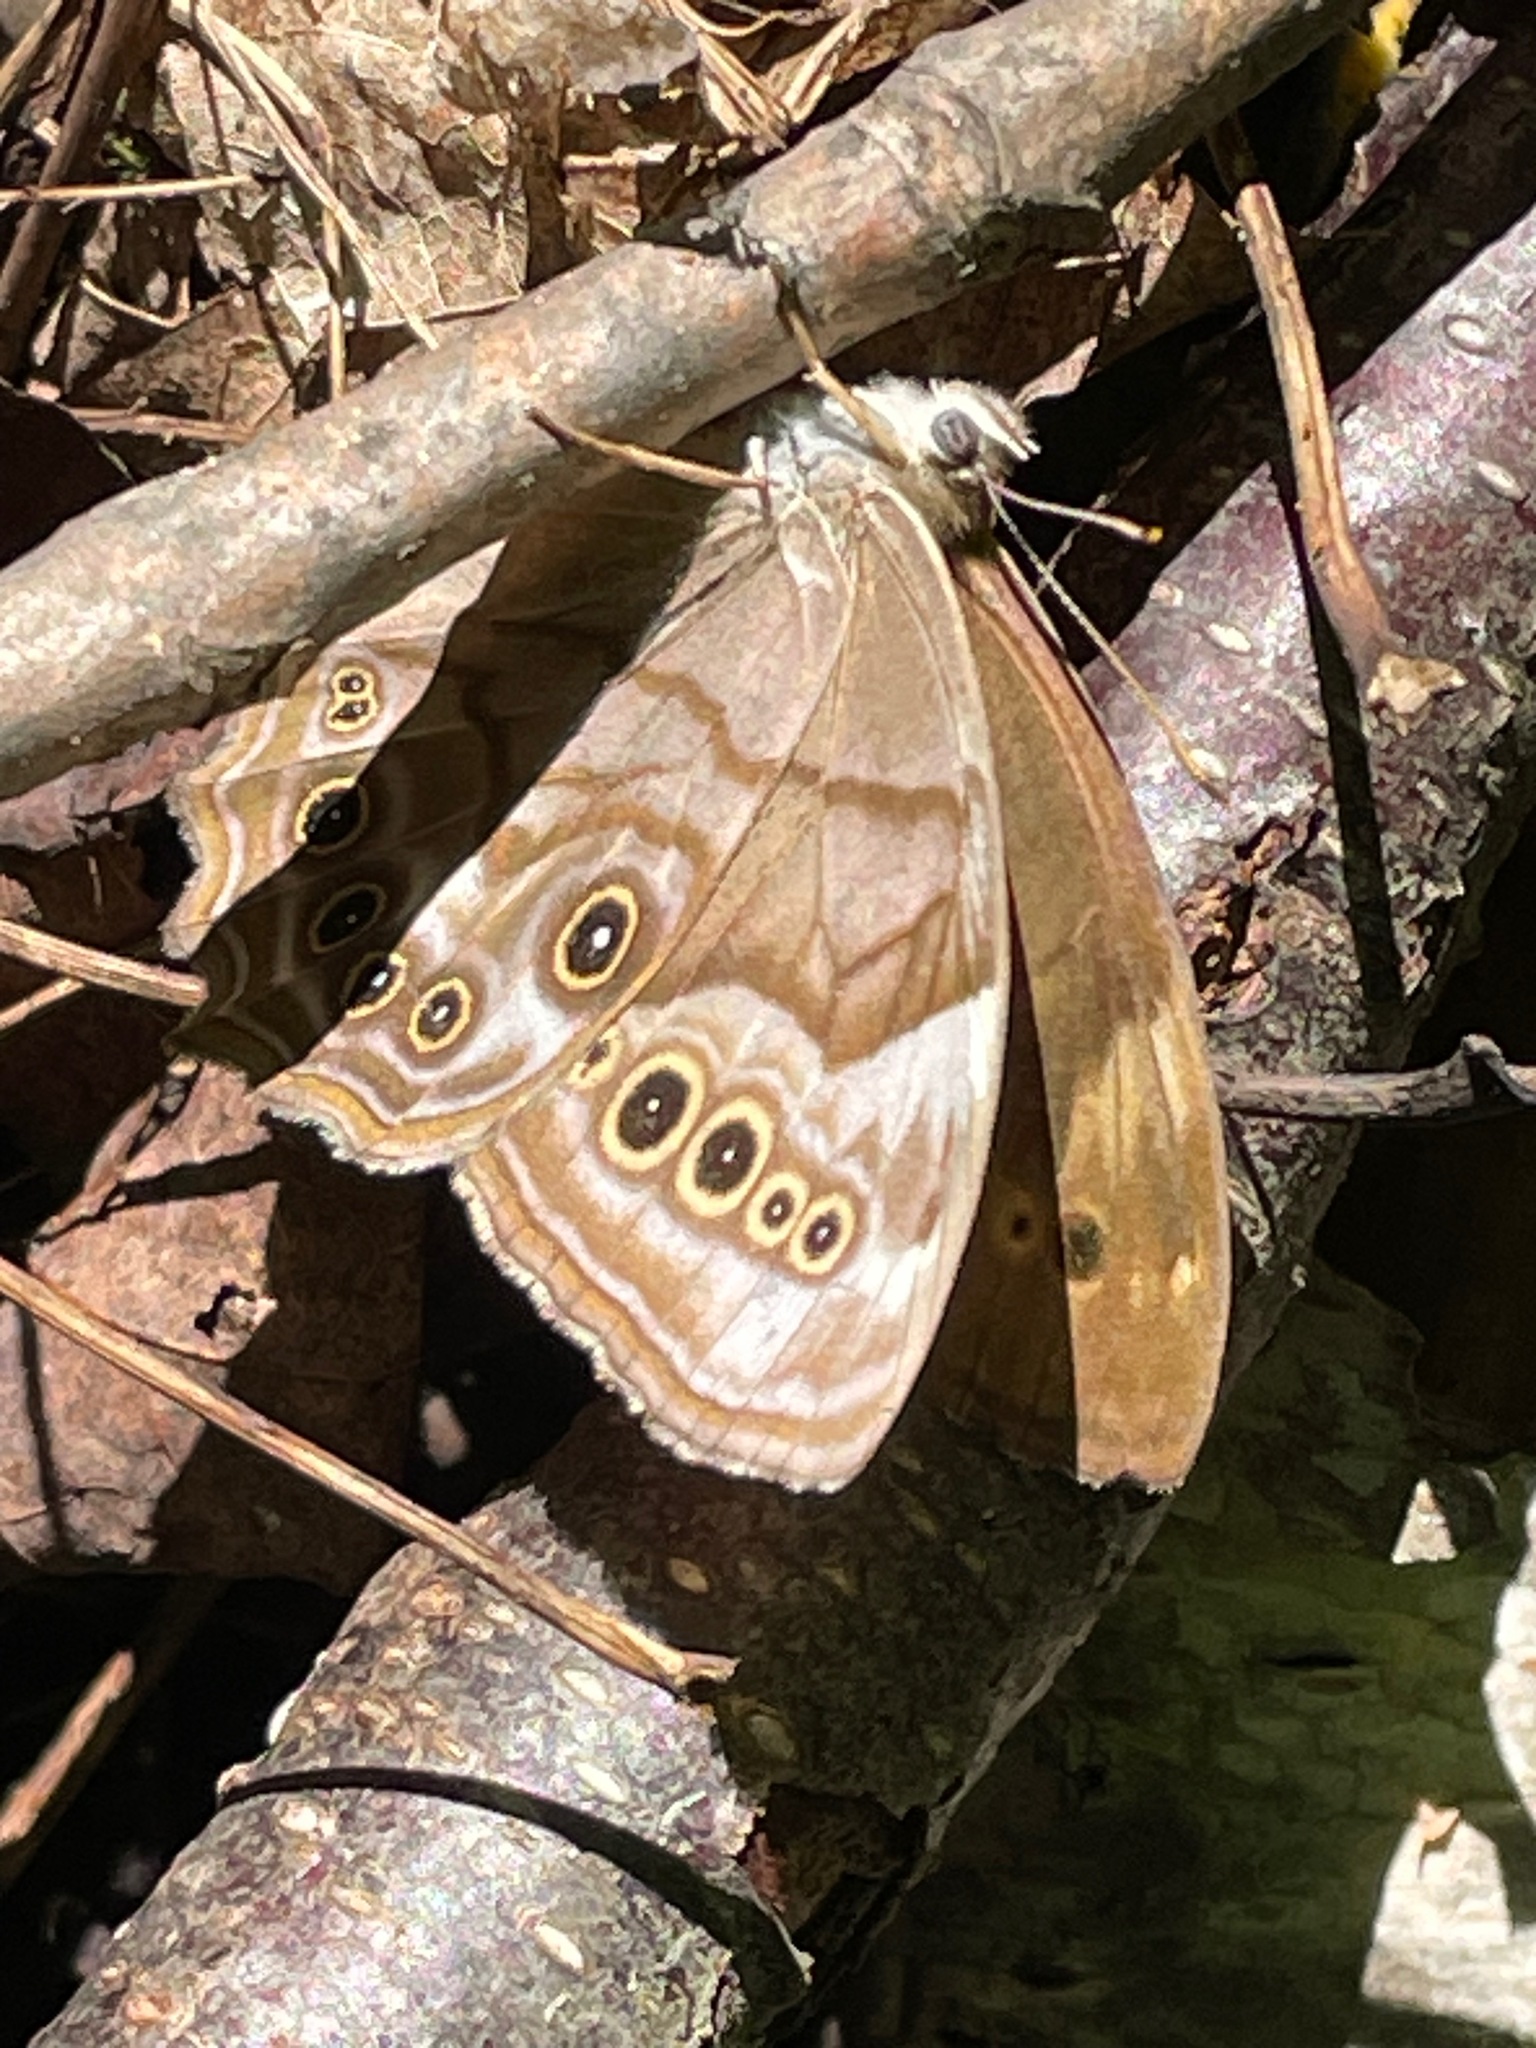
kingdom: Animalia
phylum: Arthropoda
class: Insecta
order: Lepidoptera
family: Nymphalidae
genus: Lethe
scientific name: Lethe anthedon
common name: Northern pearly-eye
